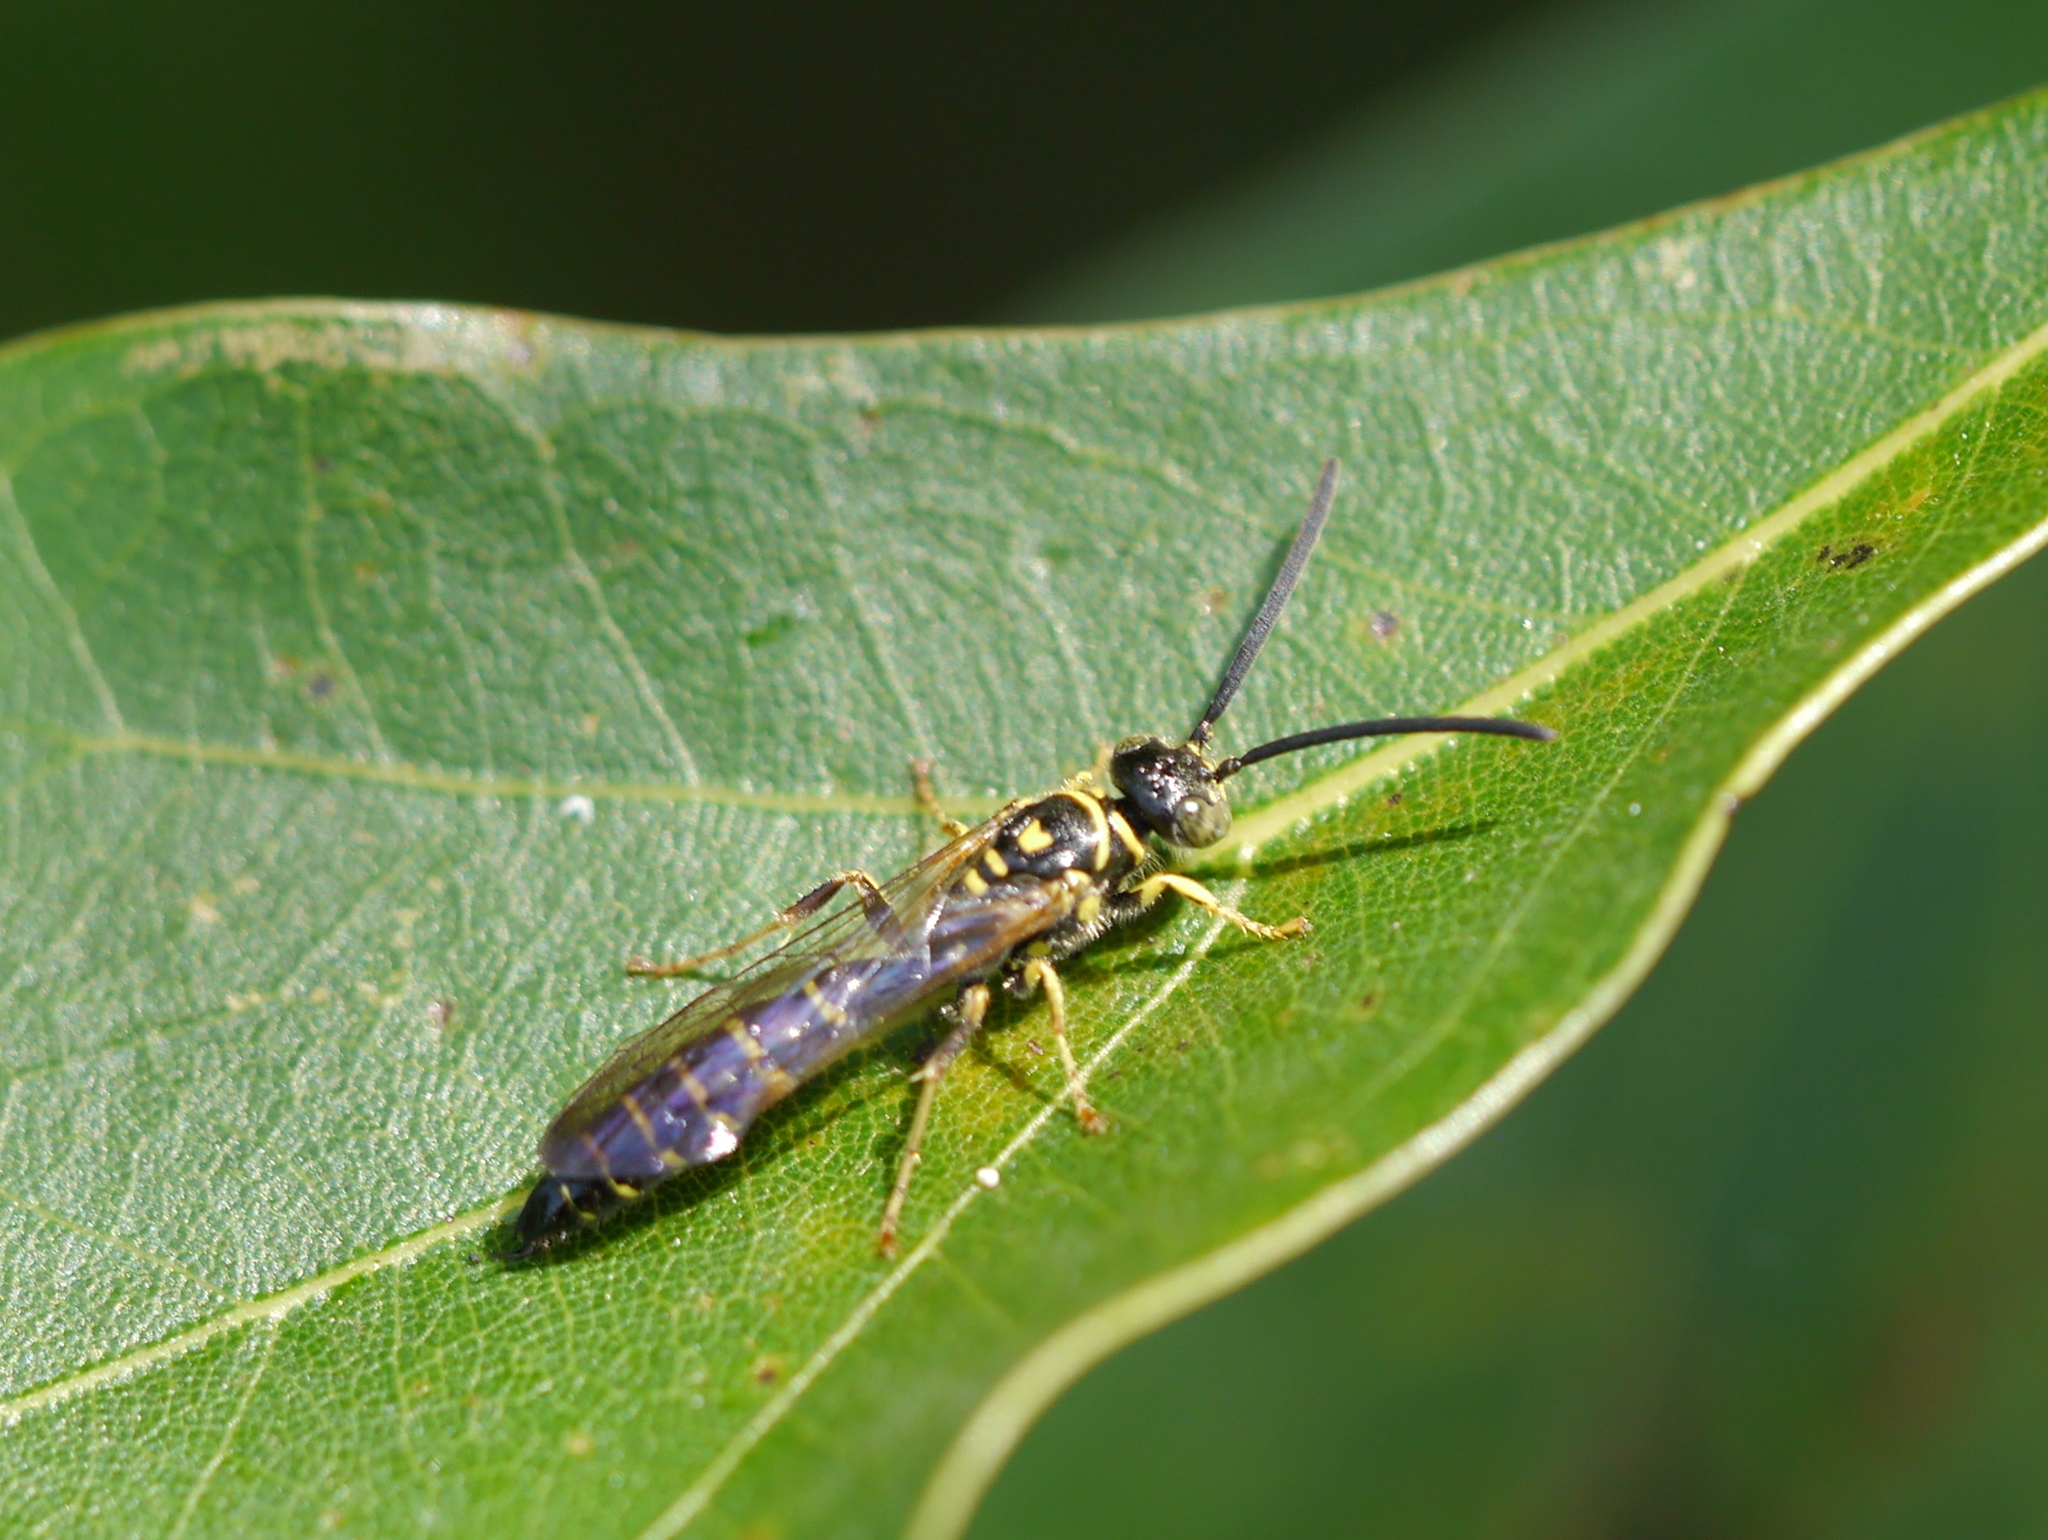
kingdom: Animalia
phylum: Arthropoda
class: Insecta
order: Hymenoptera
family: Tiphiidae
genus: Myzinum
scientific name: Myzinum
